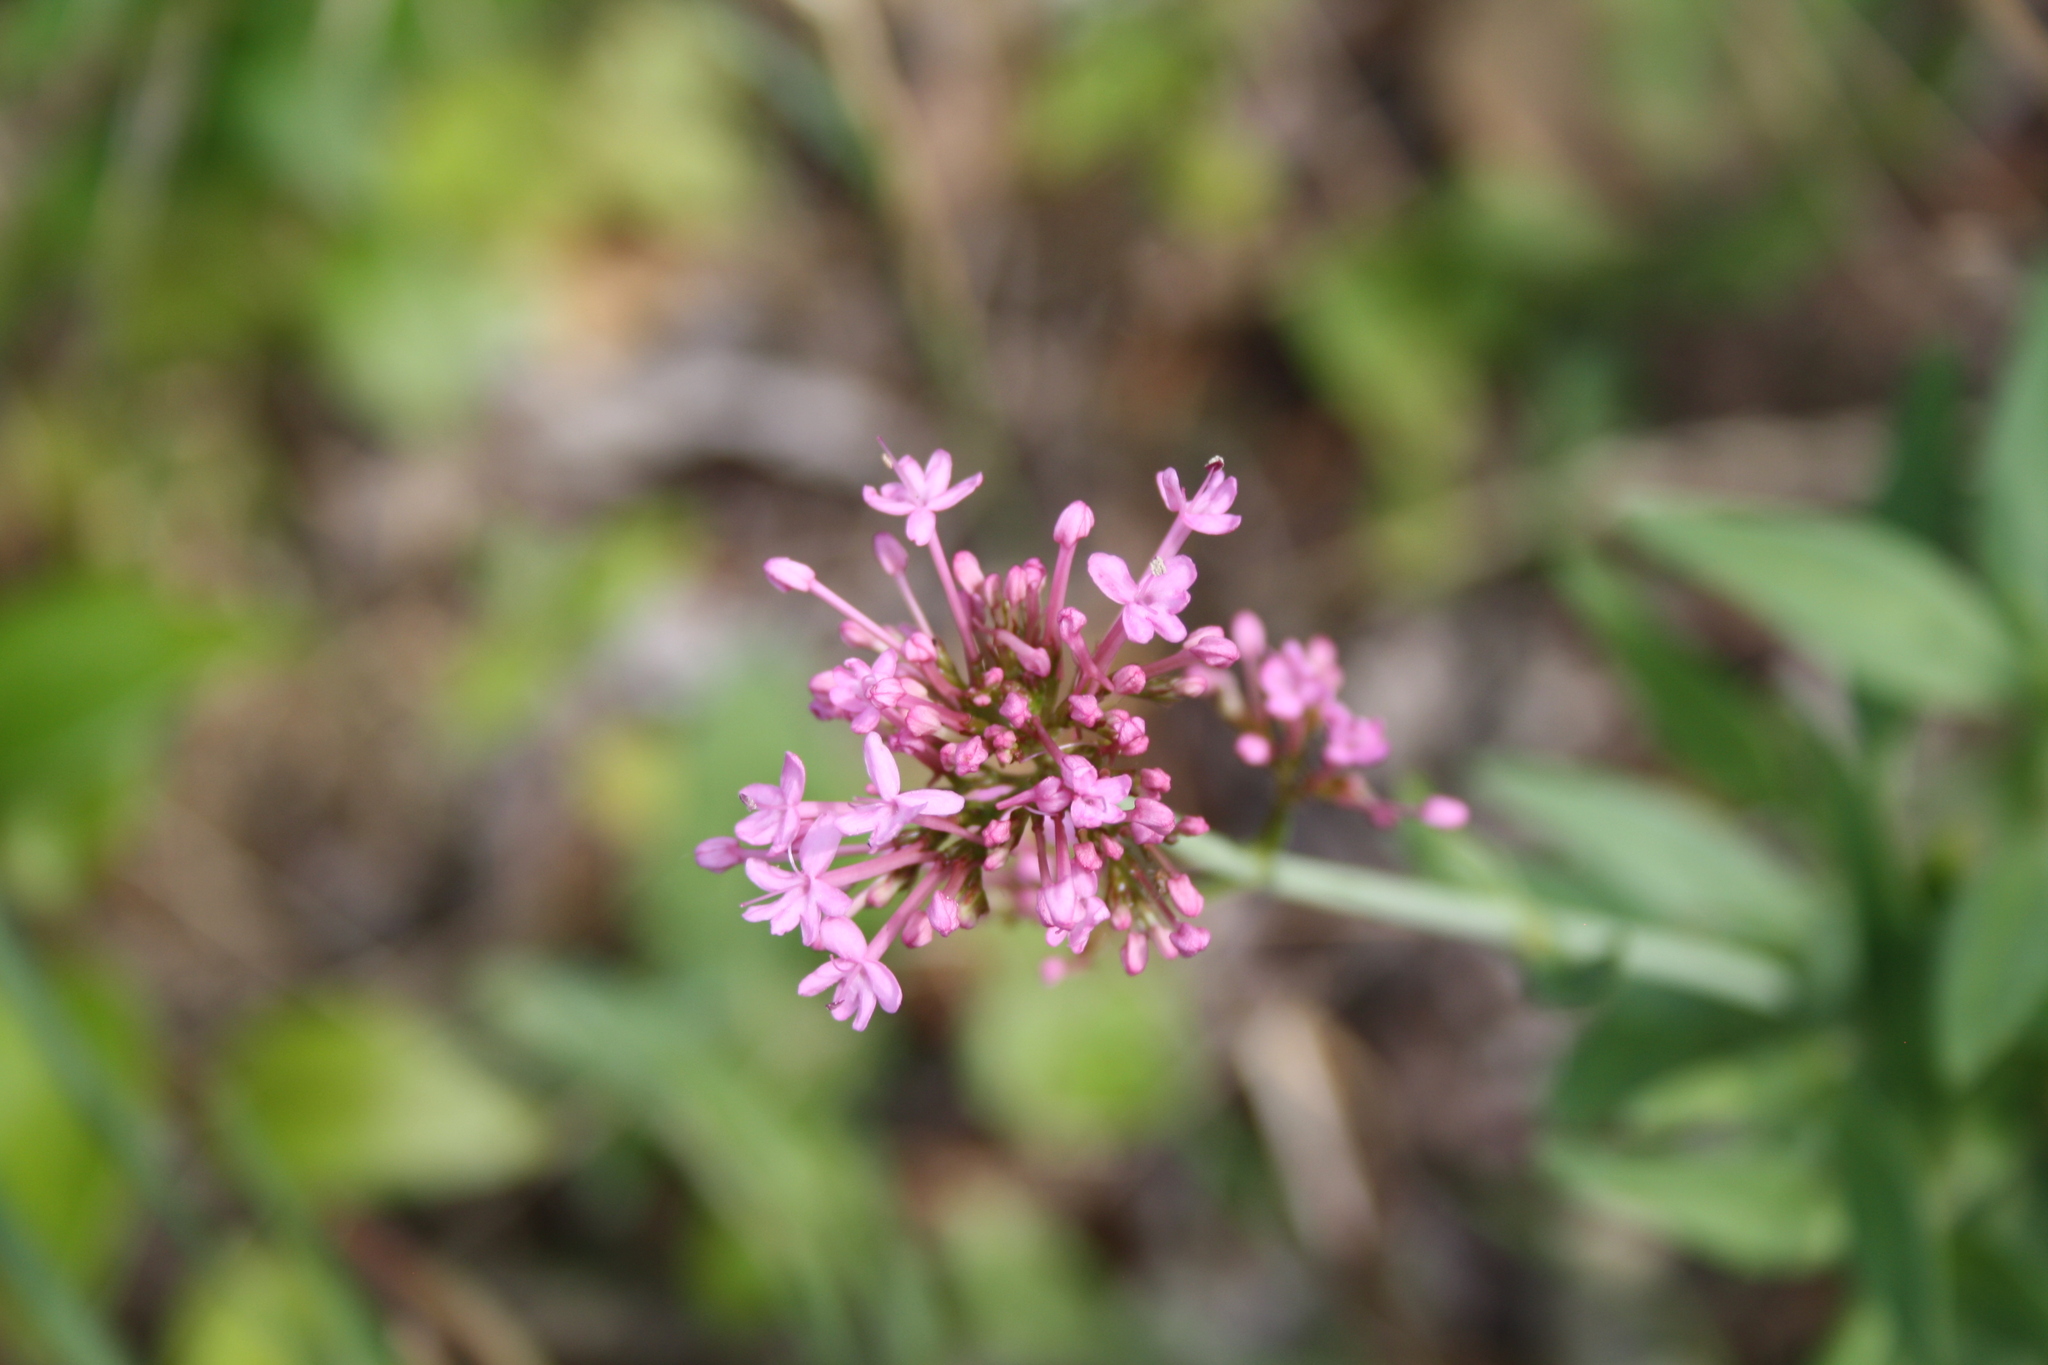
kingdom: Plantae
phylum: Tracheophyta
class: Magnoliopsida
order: Dipsacales
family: Caprifoliaceae
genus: Centranthus
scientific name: Centranthus ruber
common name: Red valerian
